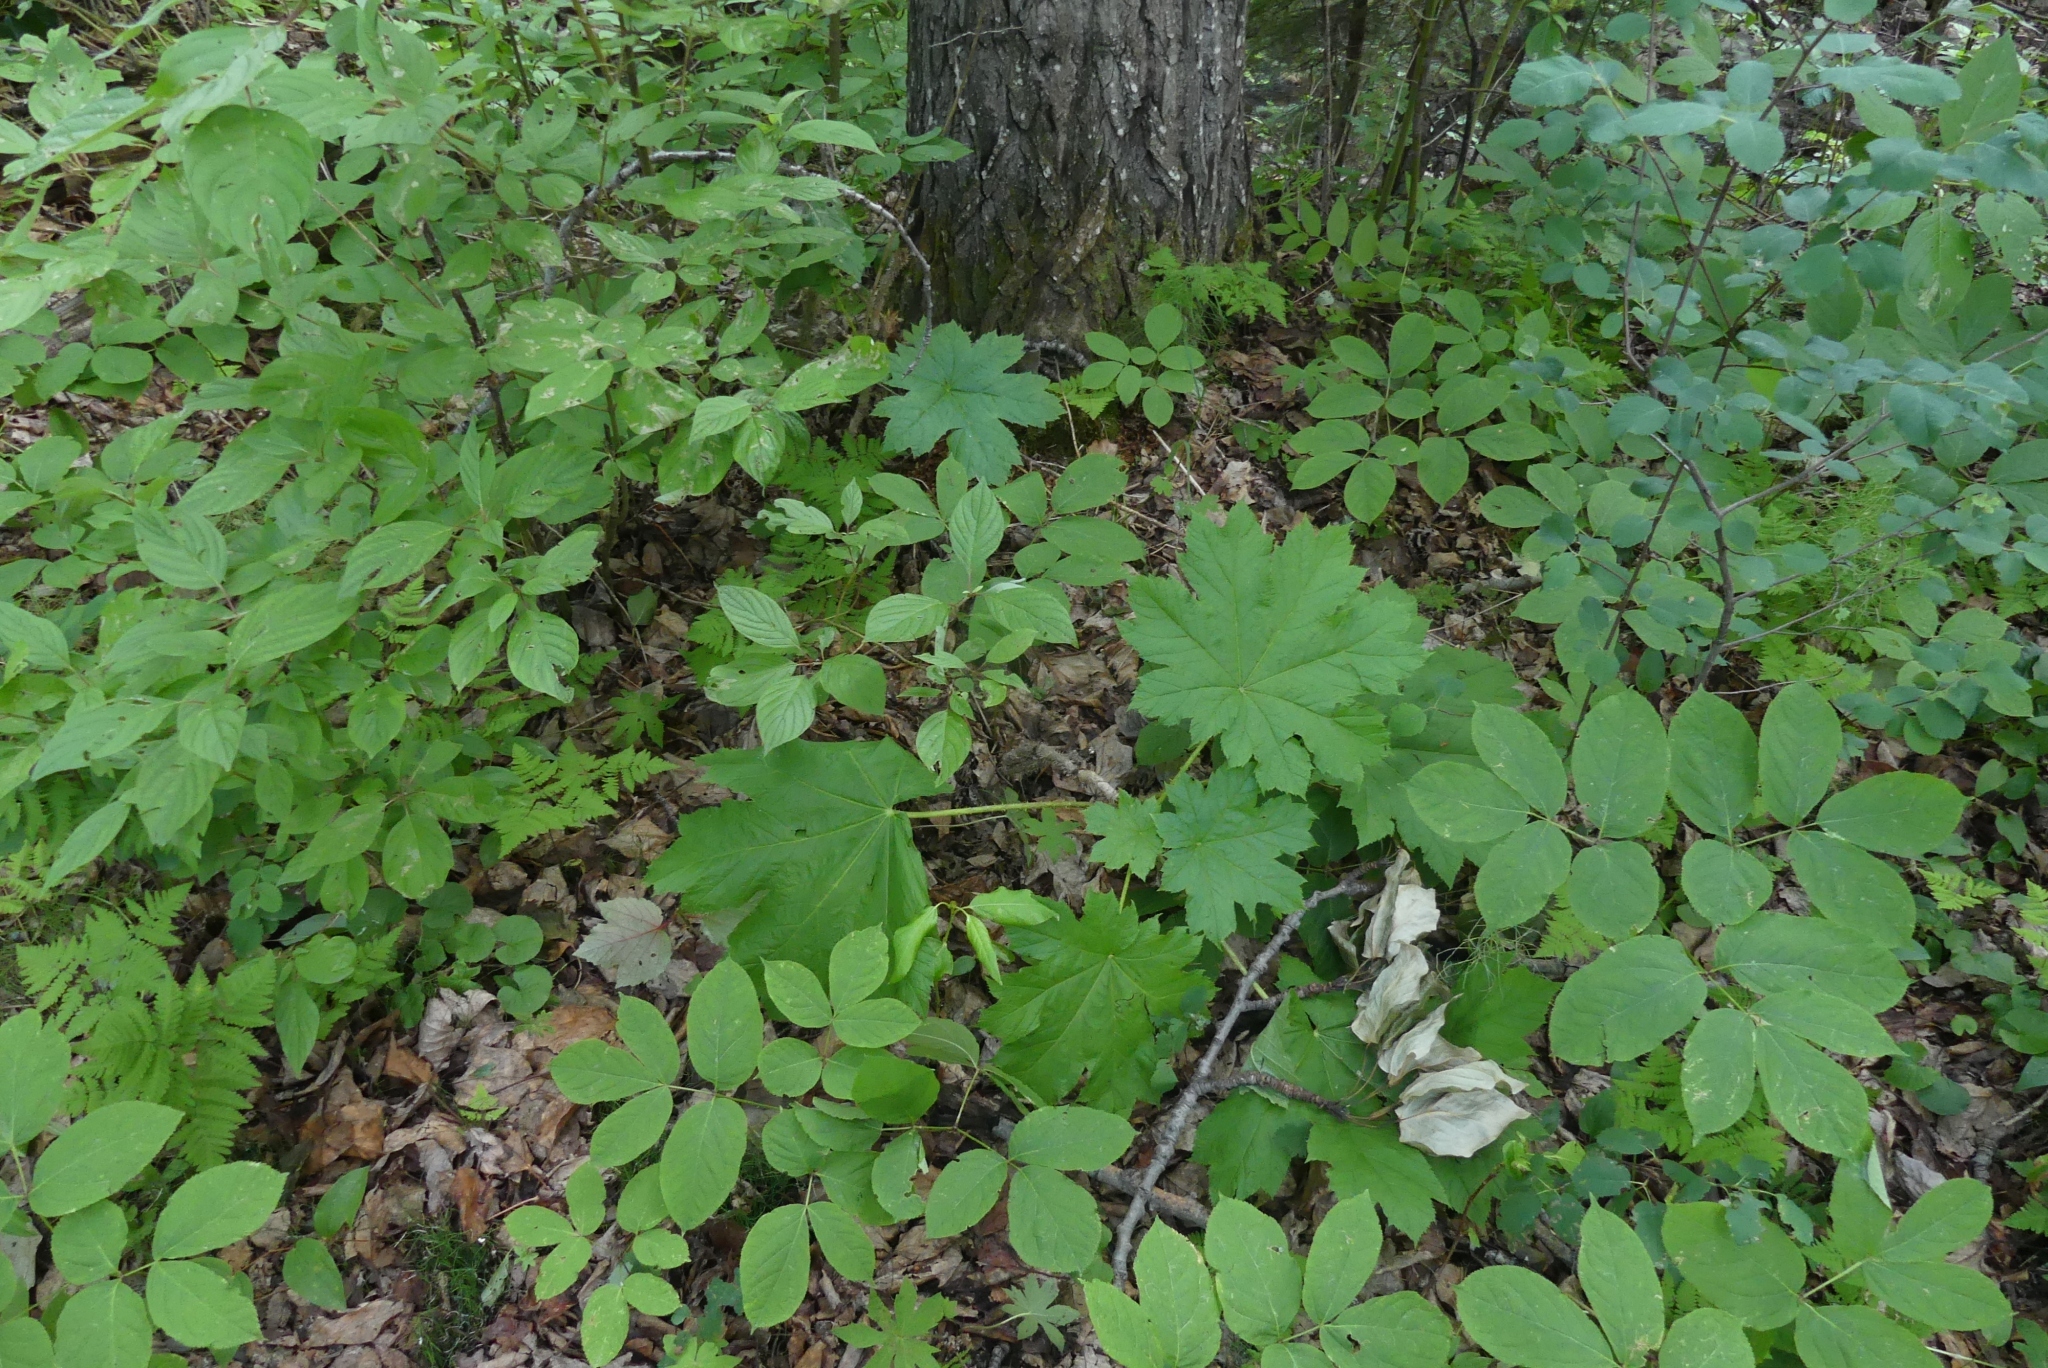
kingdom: Plantae
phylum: Tracheophyta
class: Magnoliopsida
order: Apiales
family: Araliaceae
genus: Oplopanax
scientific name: Oplopanax horridus
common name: Devil's walking-stick
